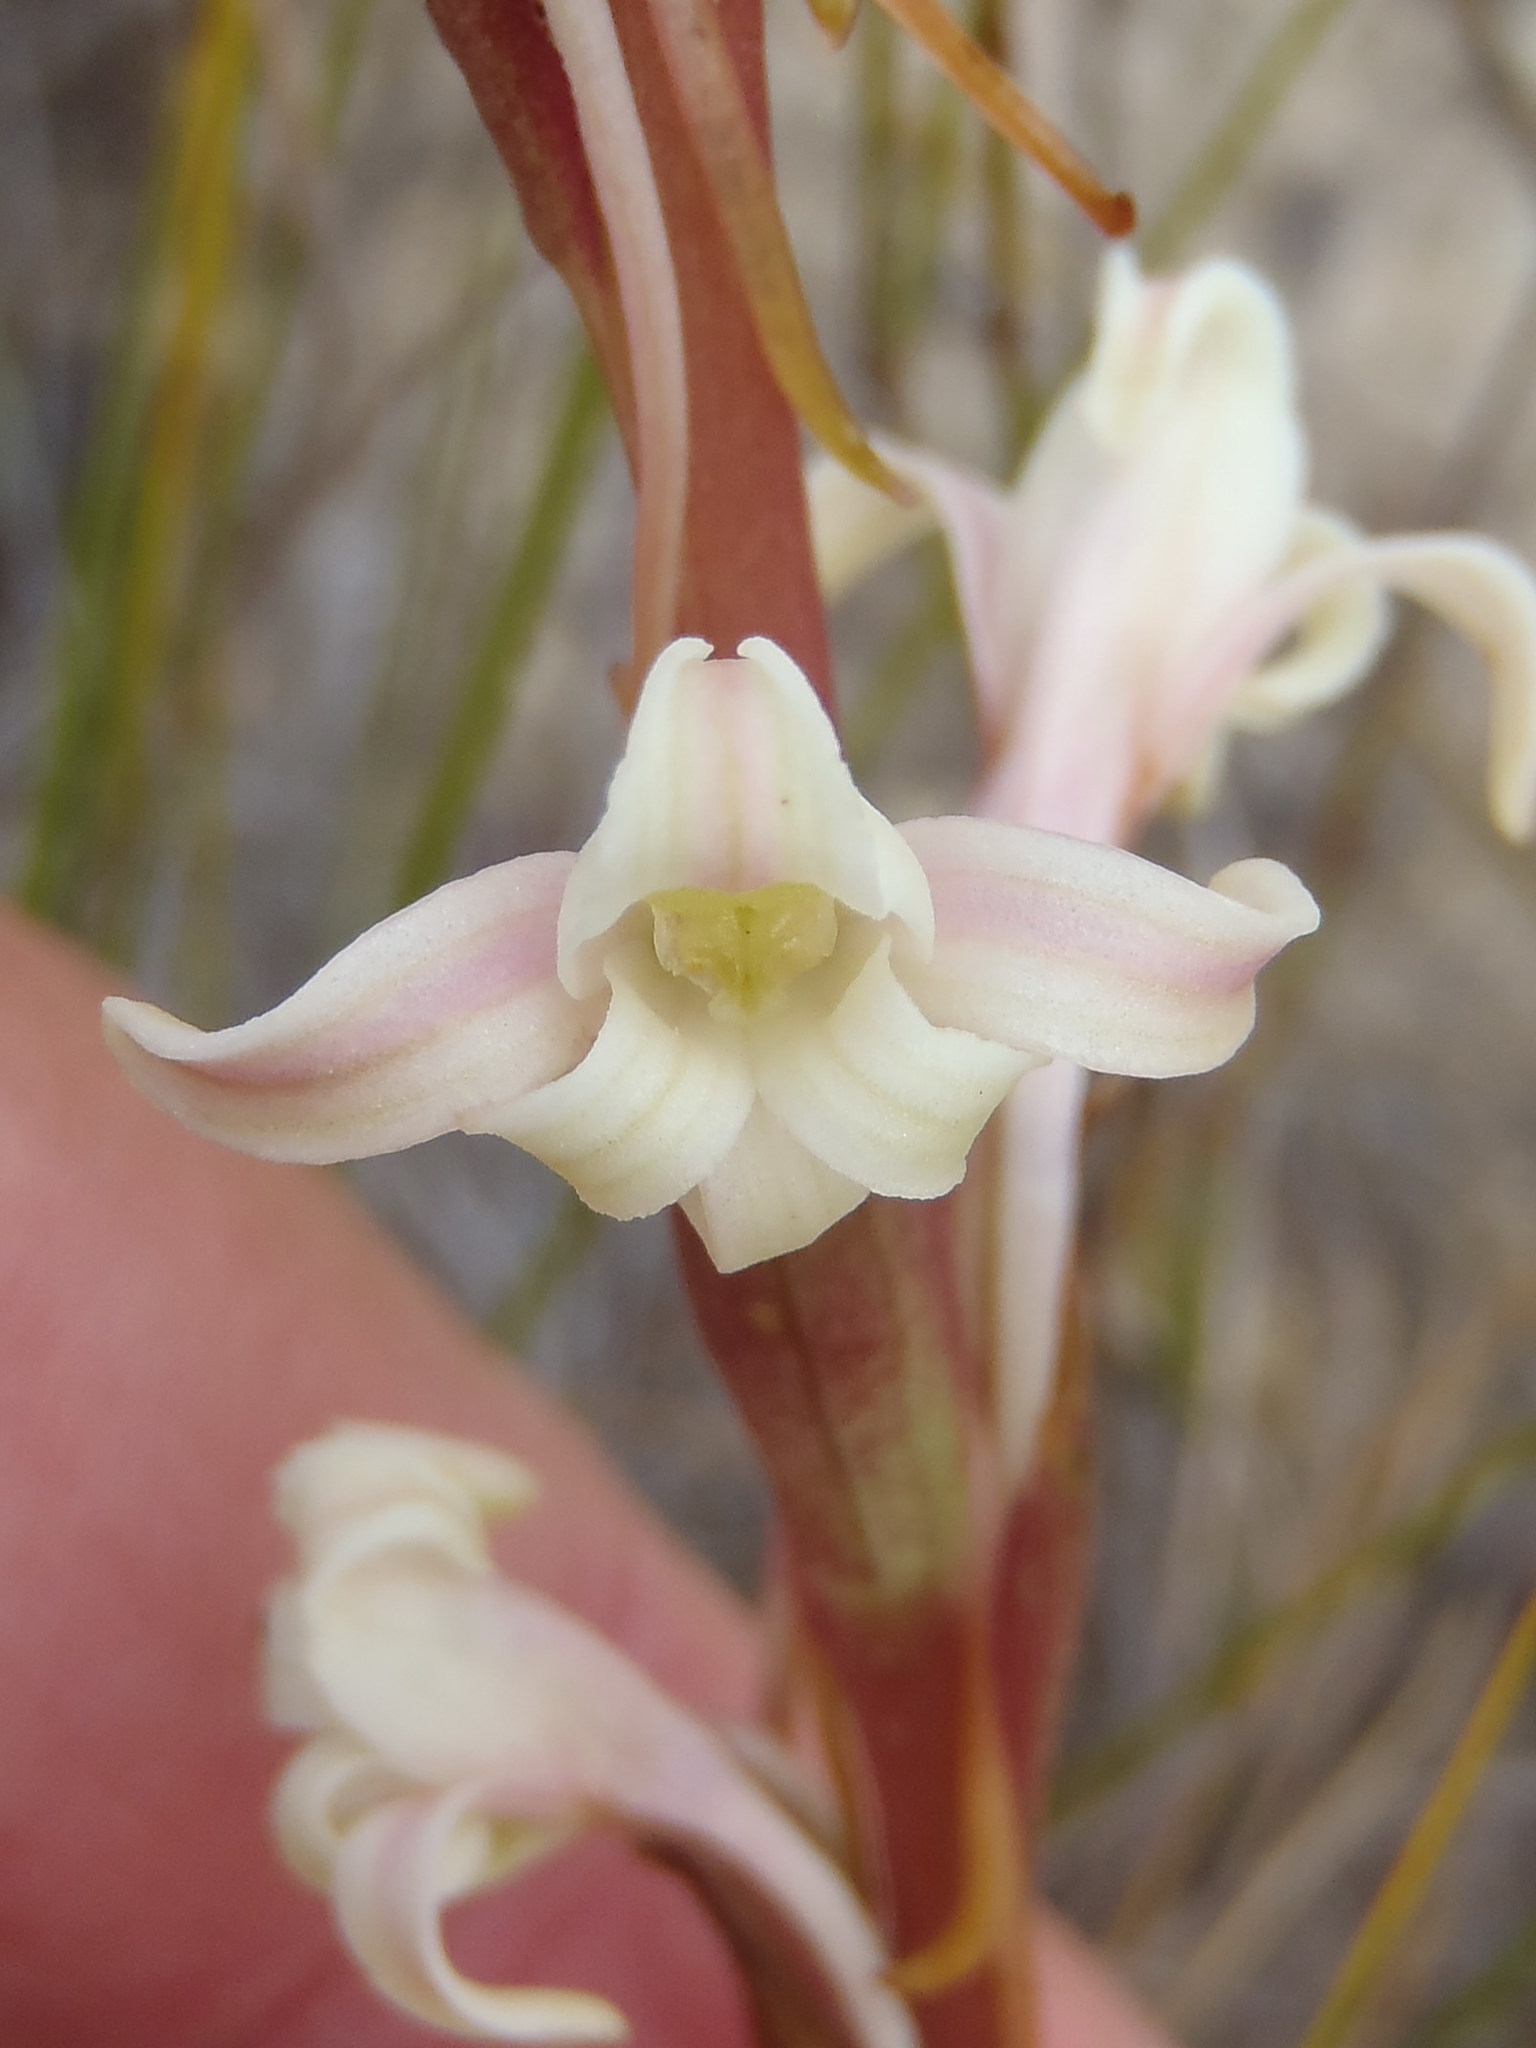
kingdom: Plantae
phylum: Tracheophyta
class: Liliopsida
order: Asparagales
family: Orchidaceae
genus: Satyrium
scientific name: Satyrium stenopetalum
